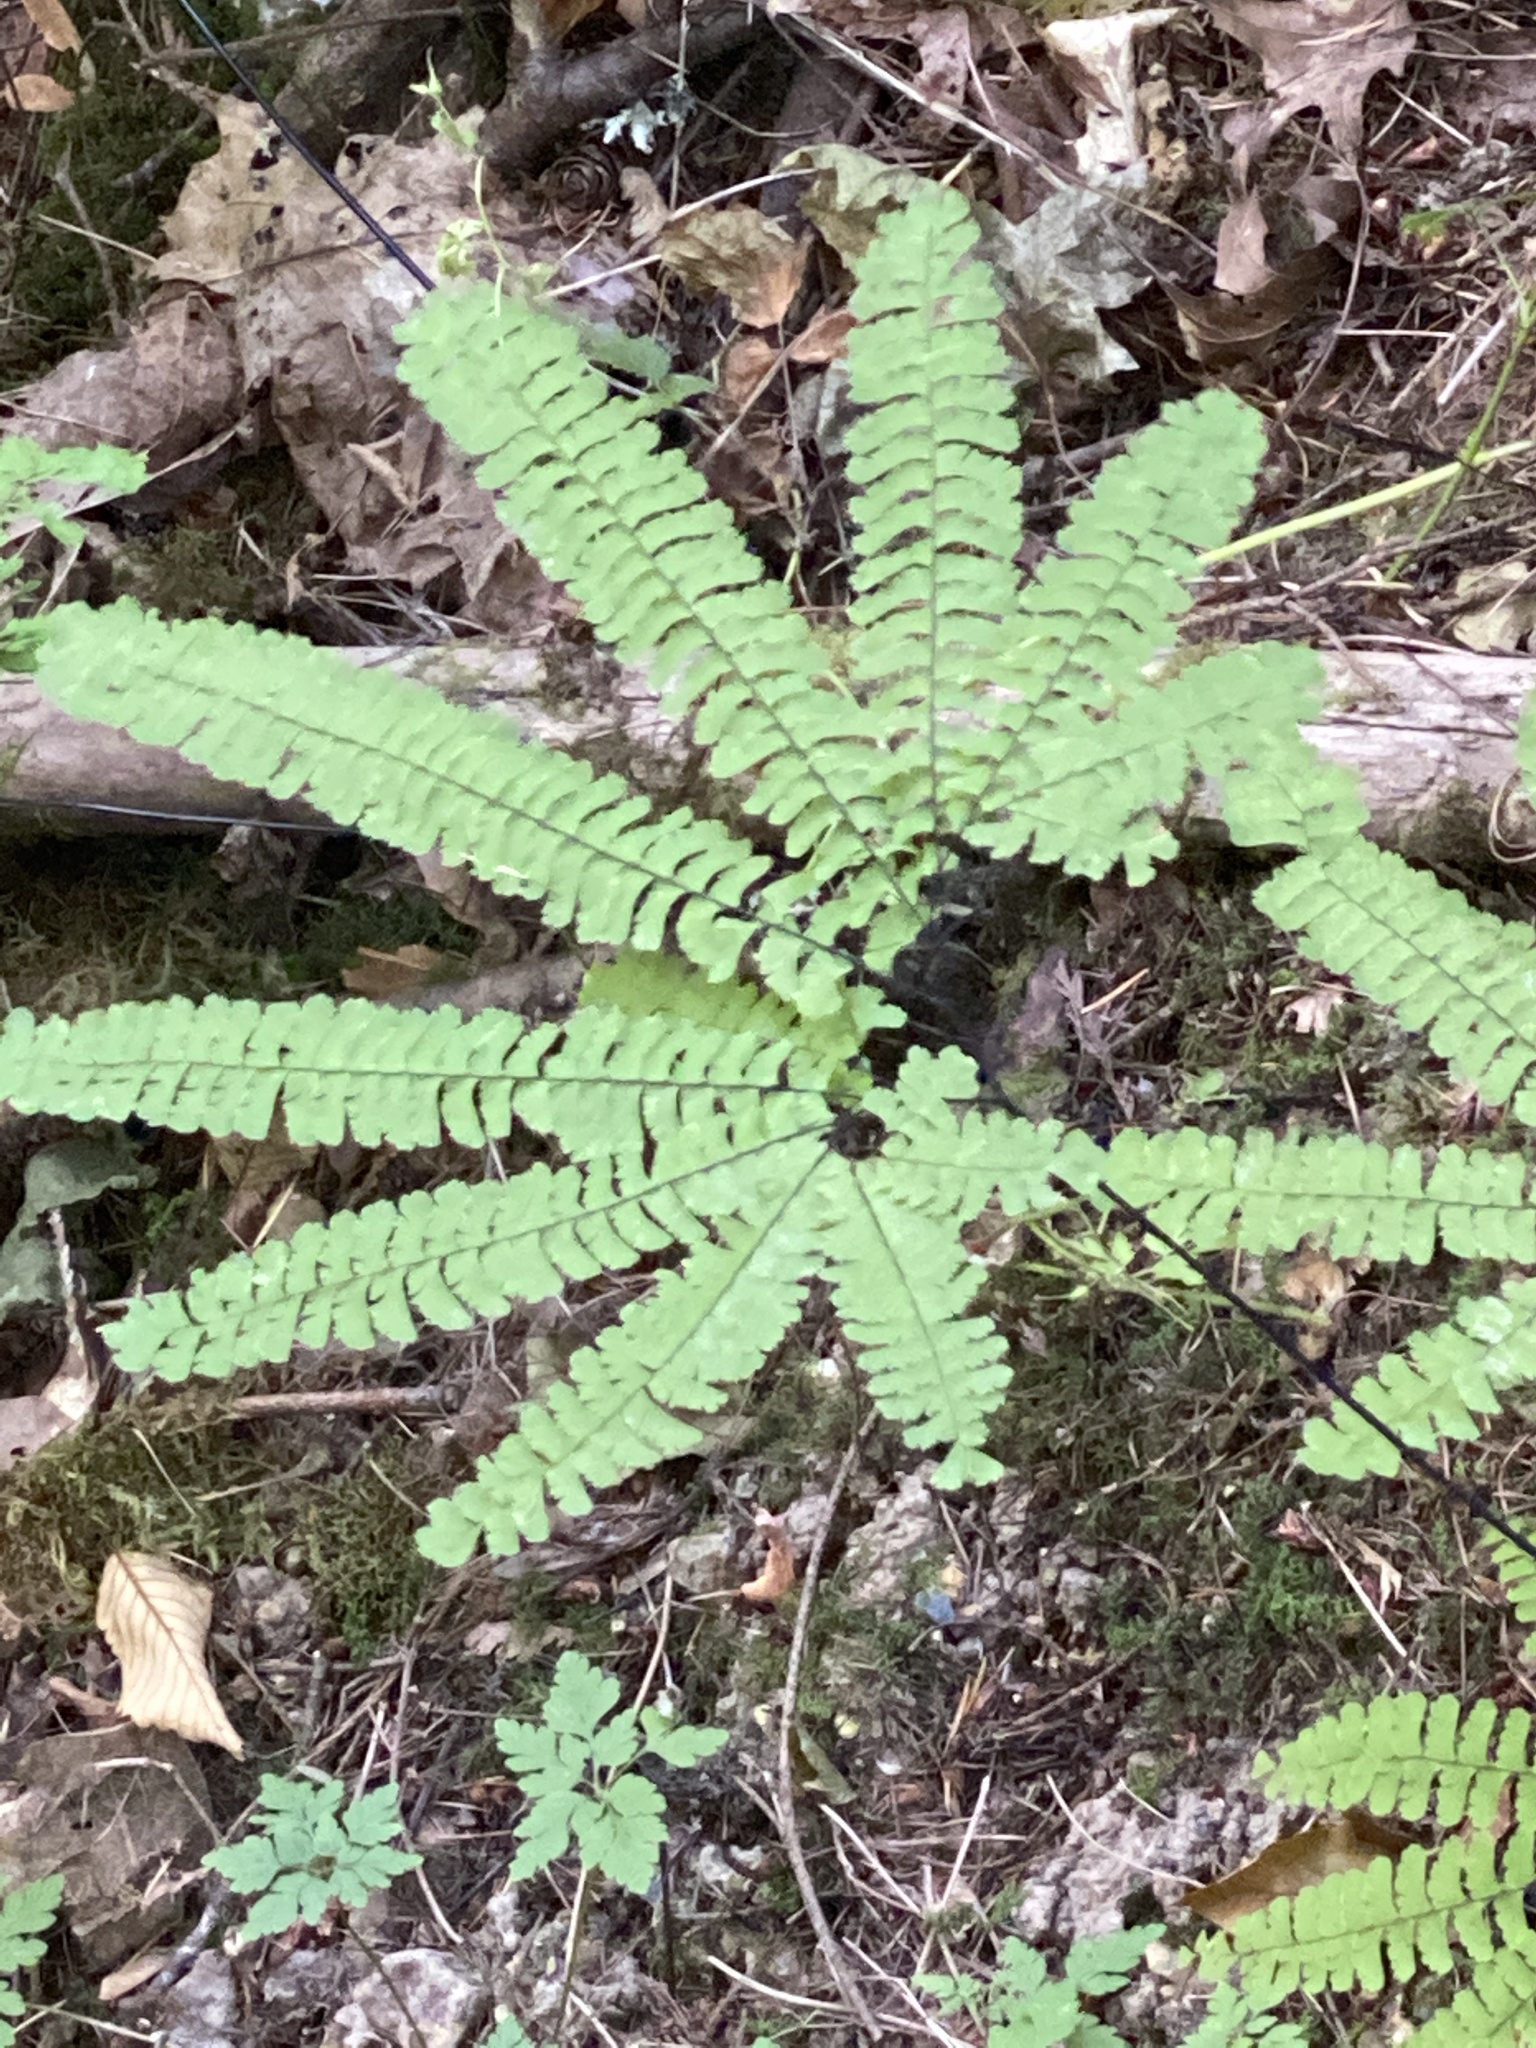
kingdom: Plantae
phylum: Tracheophyta
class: Polypodiopsida
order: Polypodiales
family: Pteridaceae
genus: Adiantum
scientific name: Adiantum aleuticum
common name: Aleutian maidenhair fern
